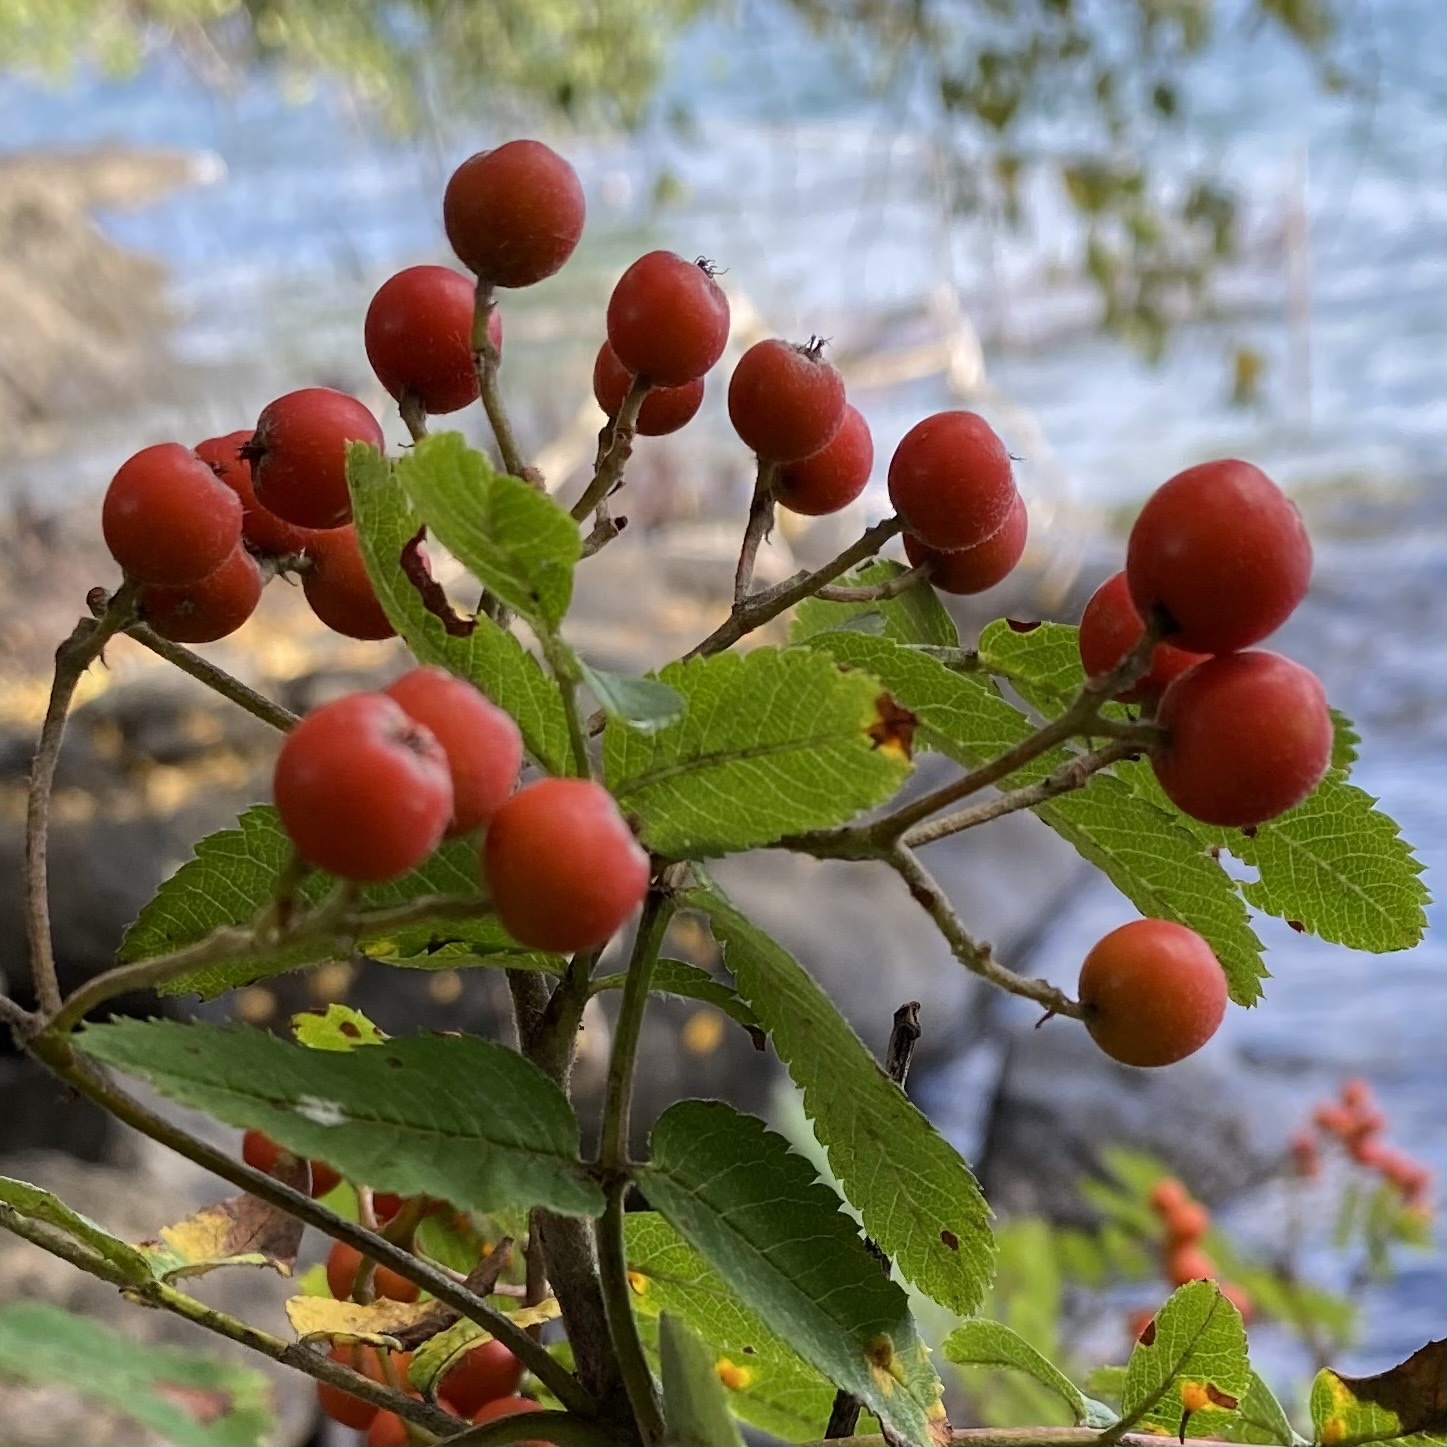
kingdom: Plantae
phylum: Tracheophyta
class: Magnoliopsida
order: Rosales
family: Rosaceae
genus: Sorbus
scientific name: Sorbus aucuparia
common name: Rowan
